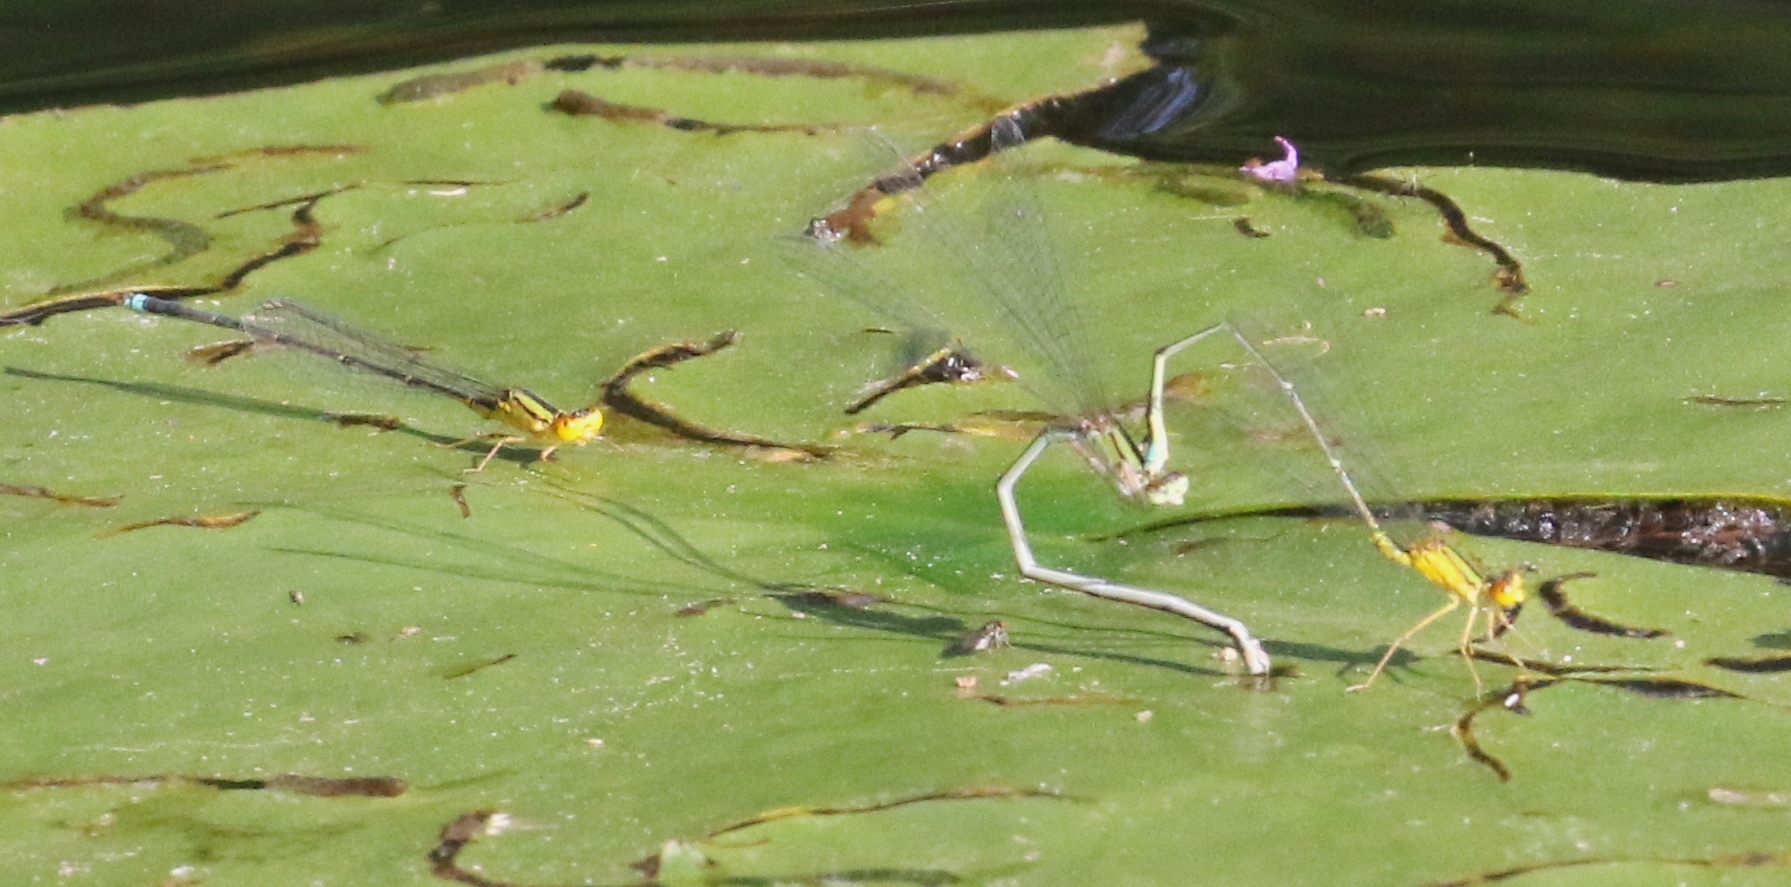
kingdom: Animalia
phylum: Arthropoda
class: Insecta
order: Odonata
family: Coenagrionidae
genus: Enallagma
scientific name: Enallagma vesperum
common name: Vesper bluet
